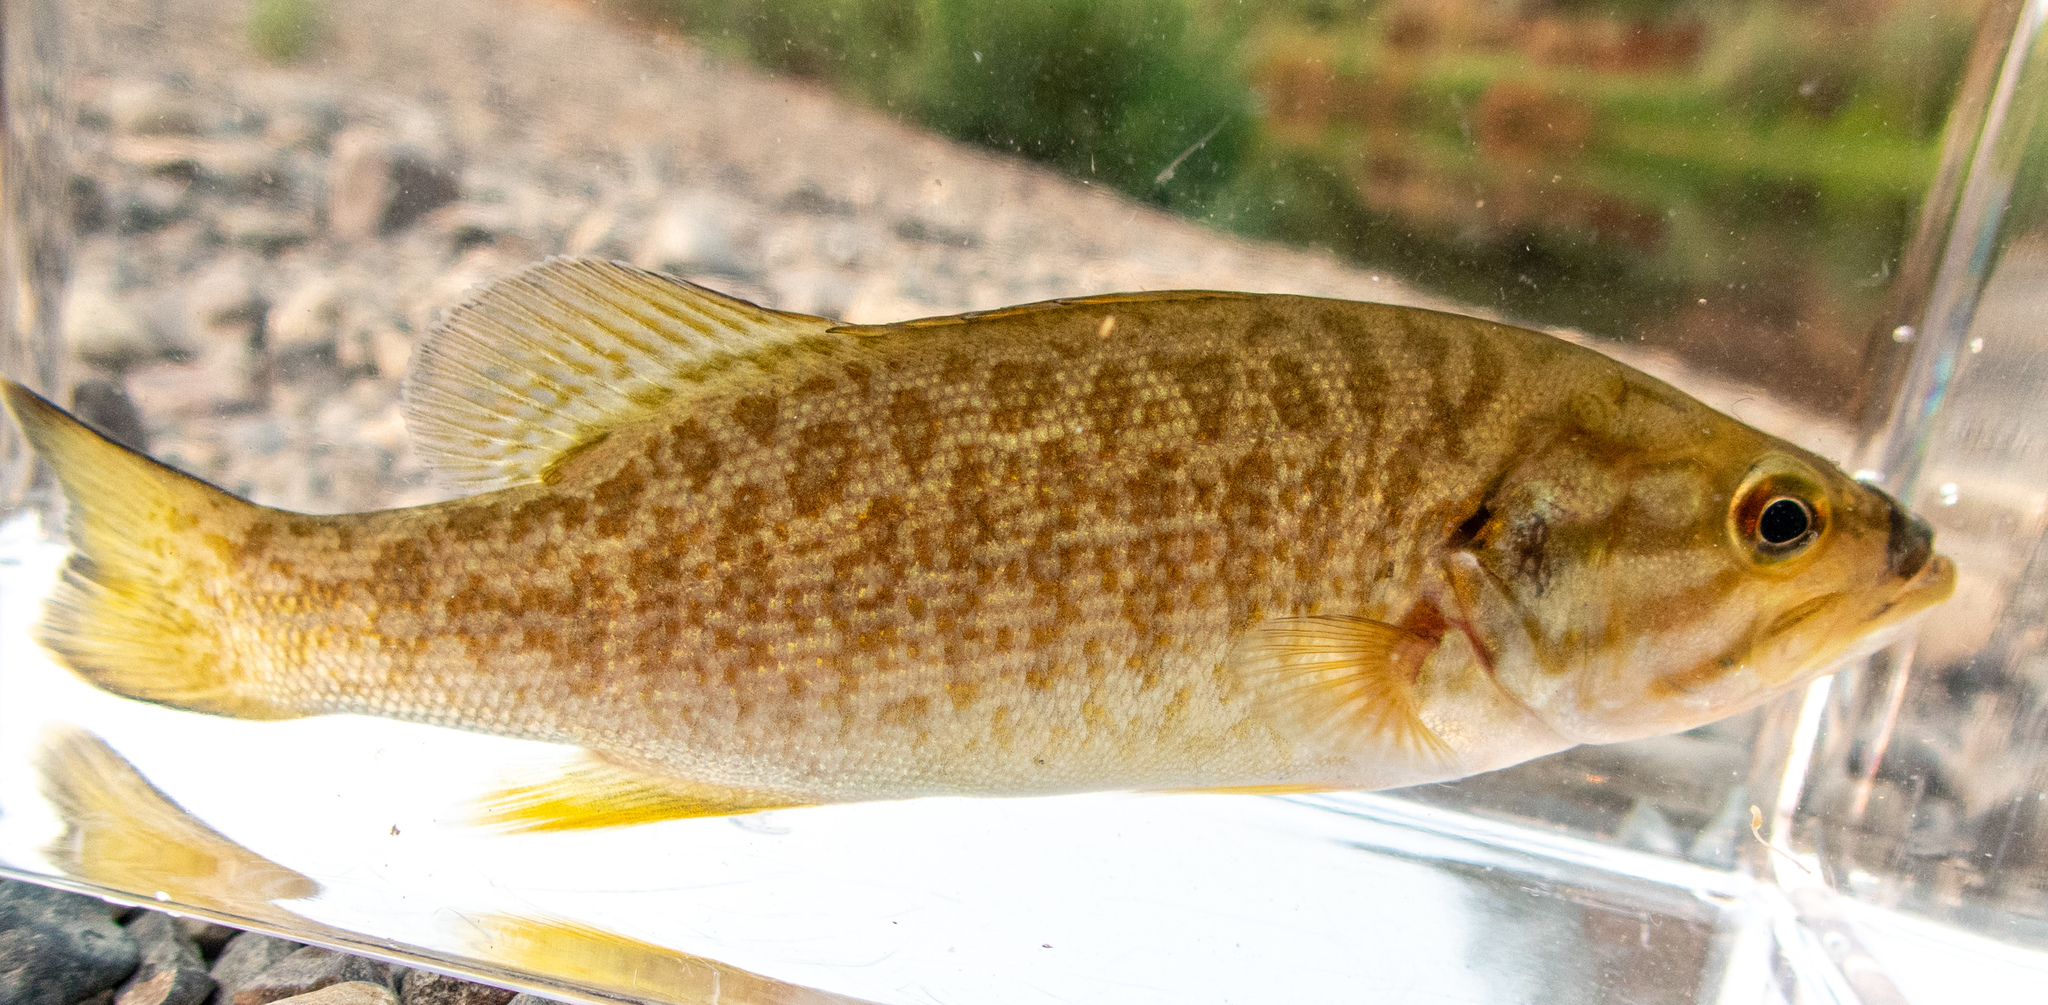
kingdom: Animalia
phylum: Chordata
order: Perciformes
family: Centrarchidae
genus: Micropterus
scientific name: Micropterus dolomieu
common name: Smallmouth bass
